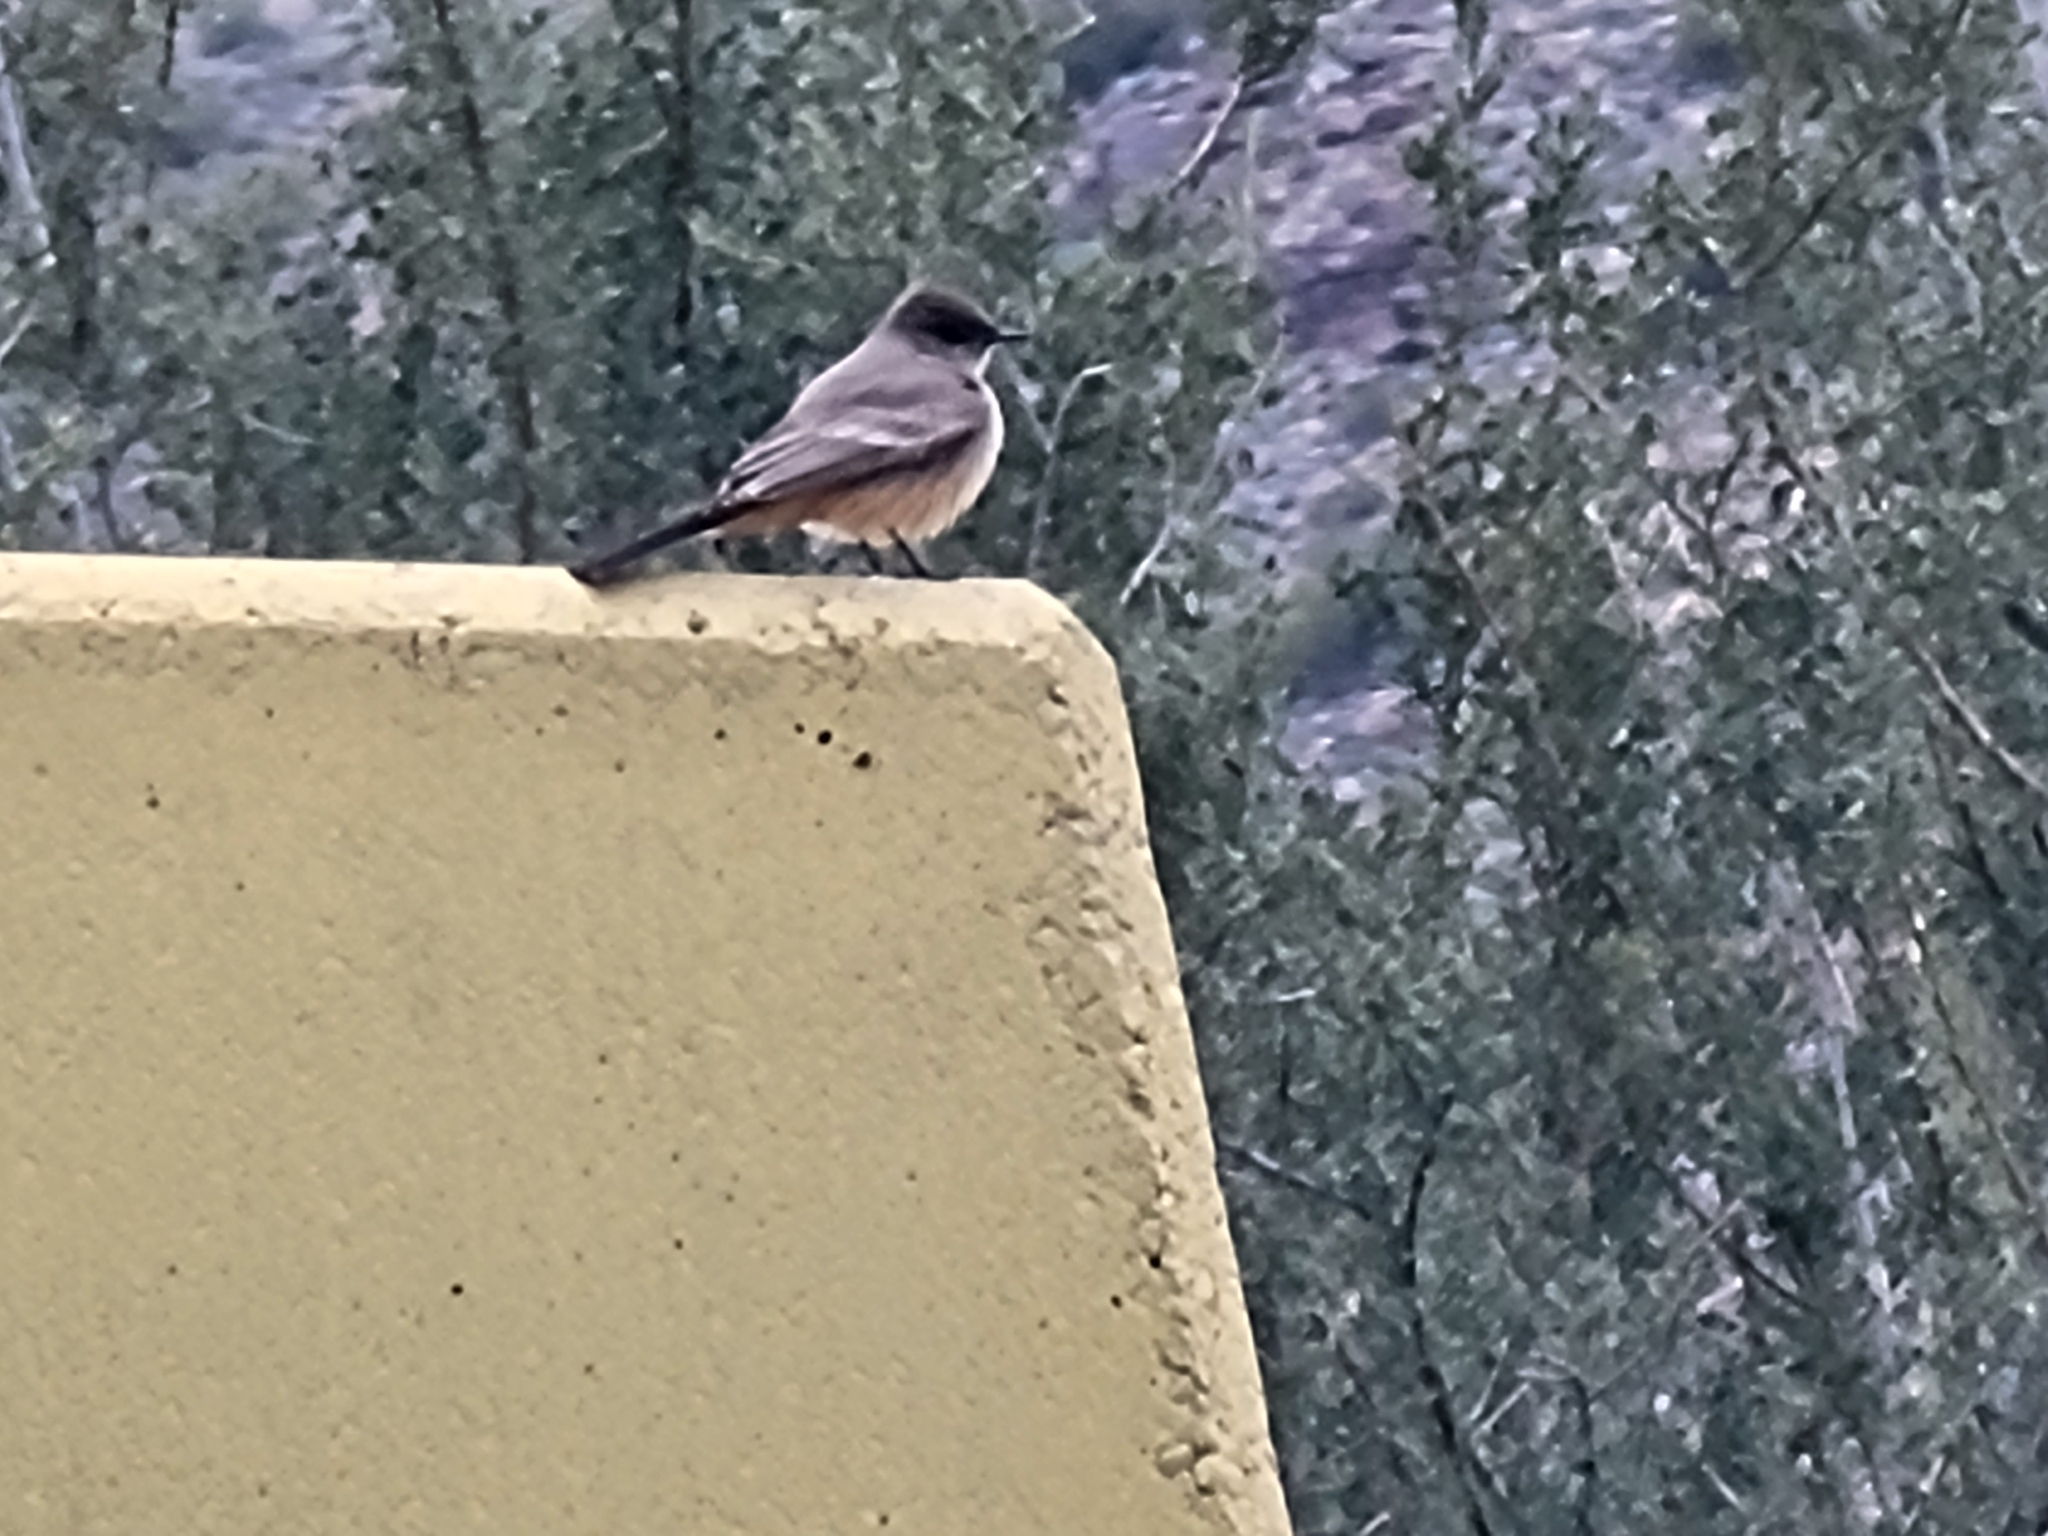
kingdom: Animalia
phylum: Chordata
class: Aves
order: Passeriformes
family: Tyrannidae
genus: Sayornis
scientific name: Sayornis saya
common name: Say's phoebe
